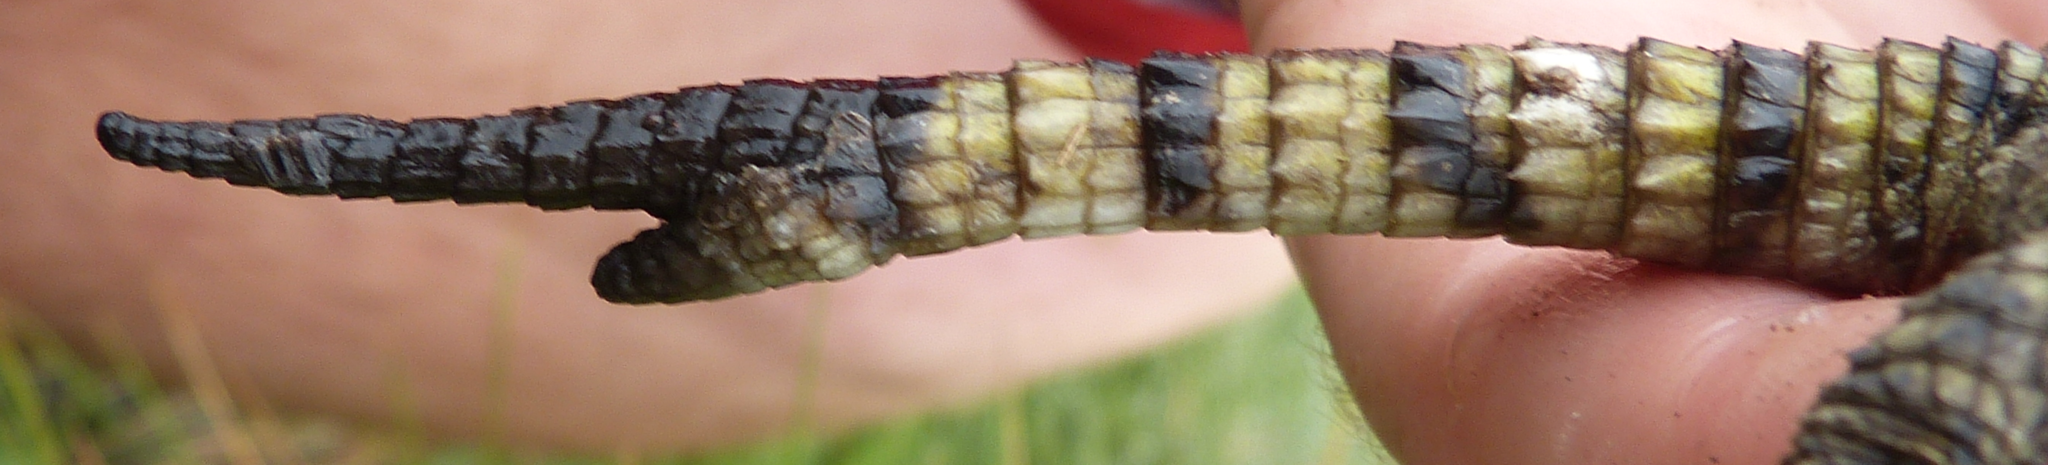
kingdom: Animalia
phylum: Chordata
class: Squamata
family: Cordylidae
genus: Pseudocordylus
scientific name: Pseudocordylus subviridis
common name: Drakensberg crag lizard
